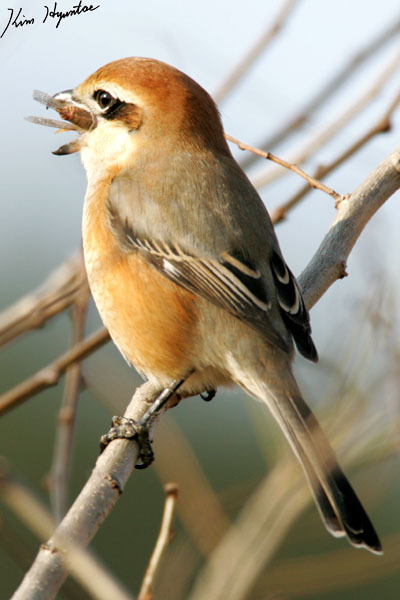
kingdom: Animalia
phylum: Chordata
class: Aves
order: Passeriformes
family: Laniidae
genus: Lanius
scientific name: Lanius bucephalus
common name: Bull-headed shrike
